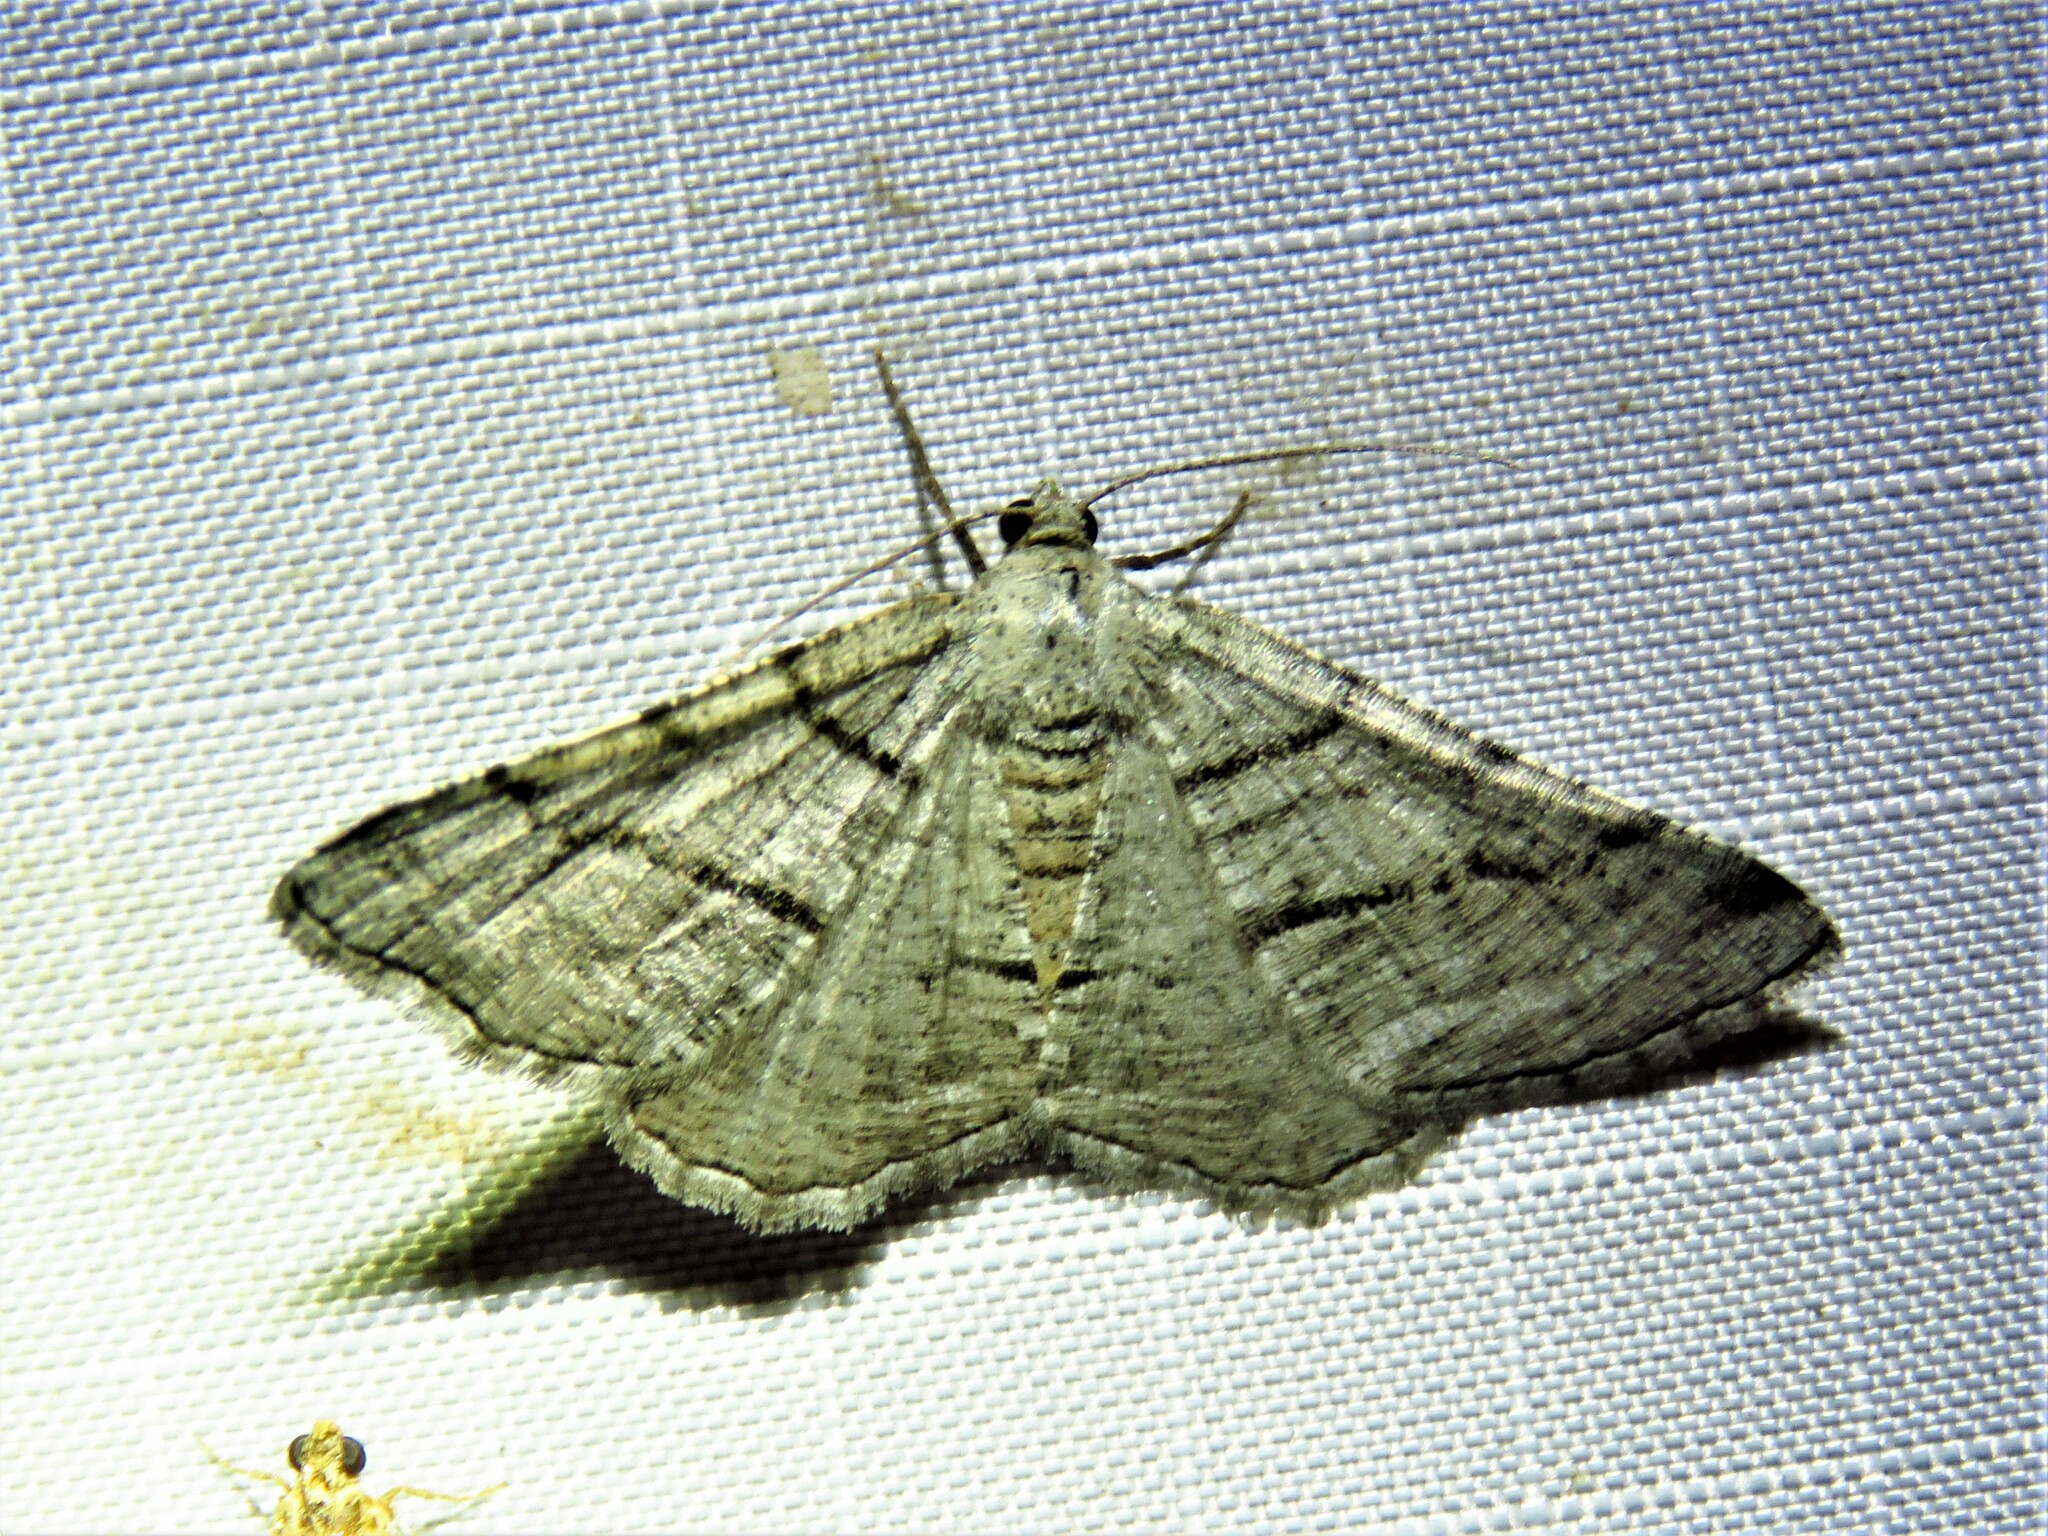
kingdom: Animalia
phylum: Arthropoda
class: Insecta
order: Lepidoptera
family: Geometridae
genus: Digrammia
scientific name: Digrammia continuata
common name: Curve-lined angle
